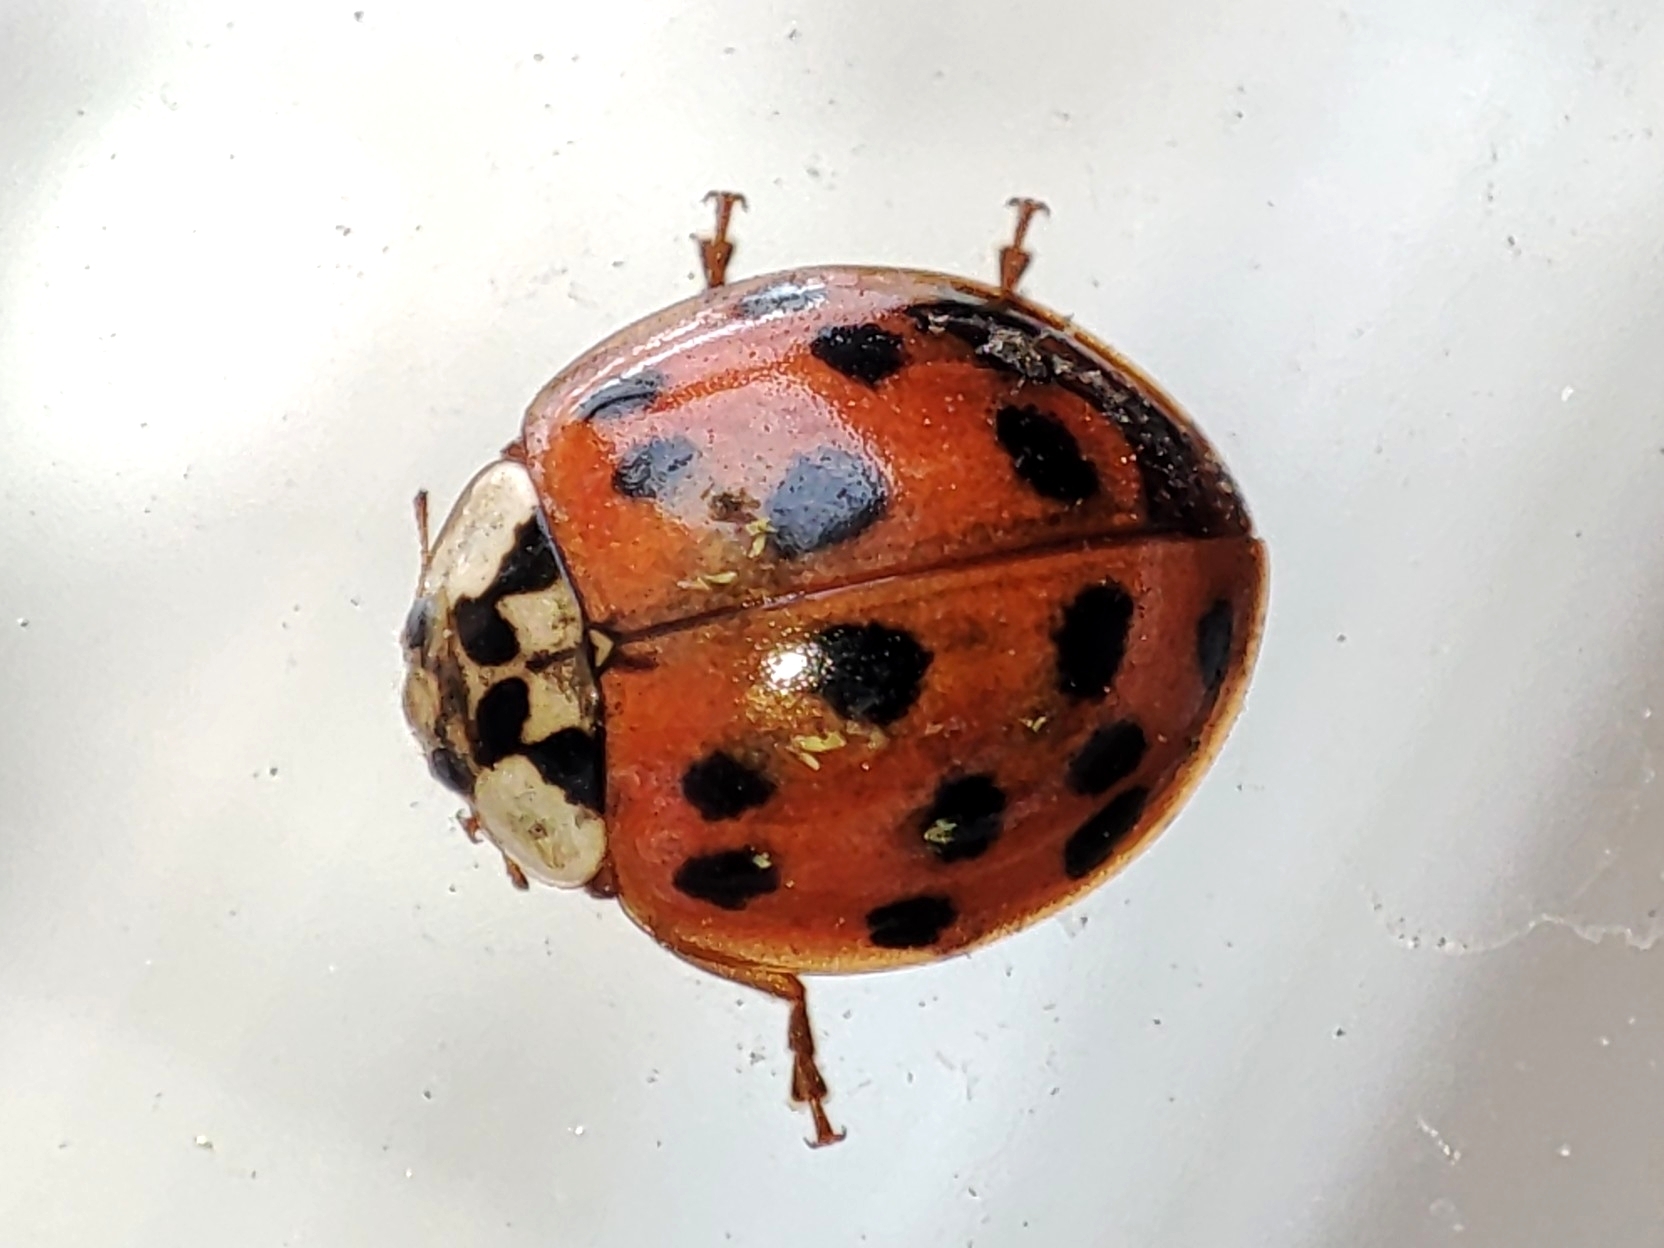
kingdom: Animalia
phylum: Arthropoda
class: Insecta
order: Coleoptera
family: Coccinellidae
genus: Harmonia
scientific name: Harmonia axyridis
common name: Harlequin ladybird
